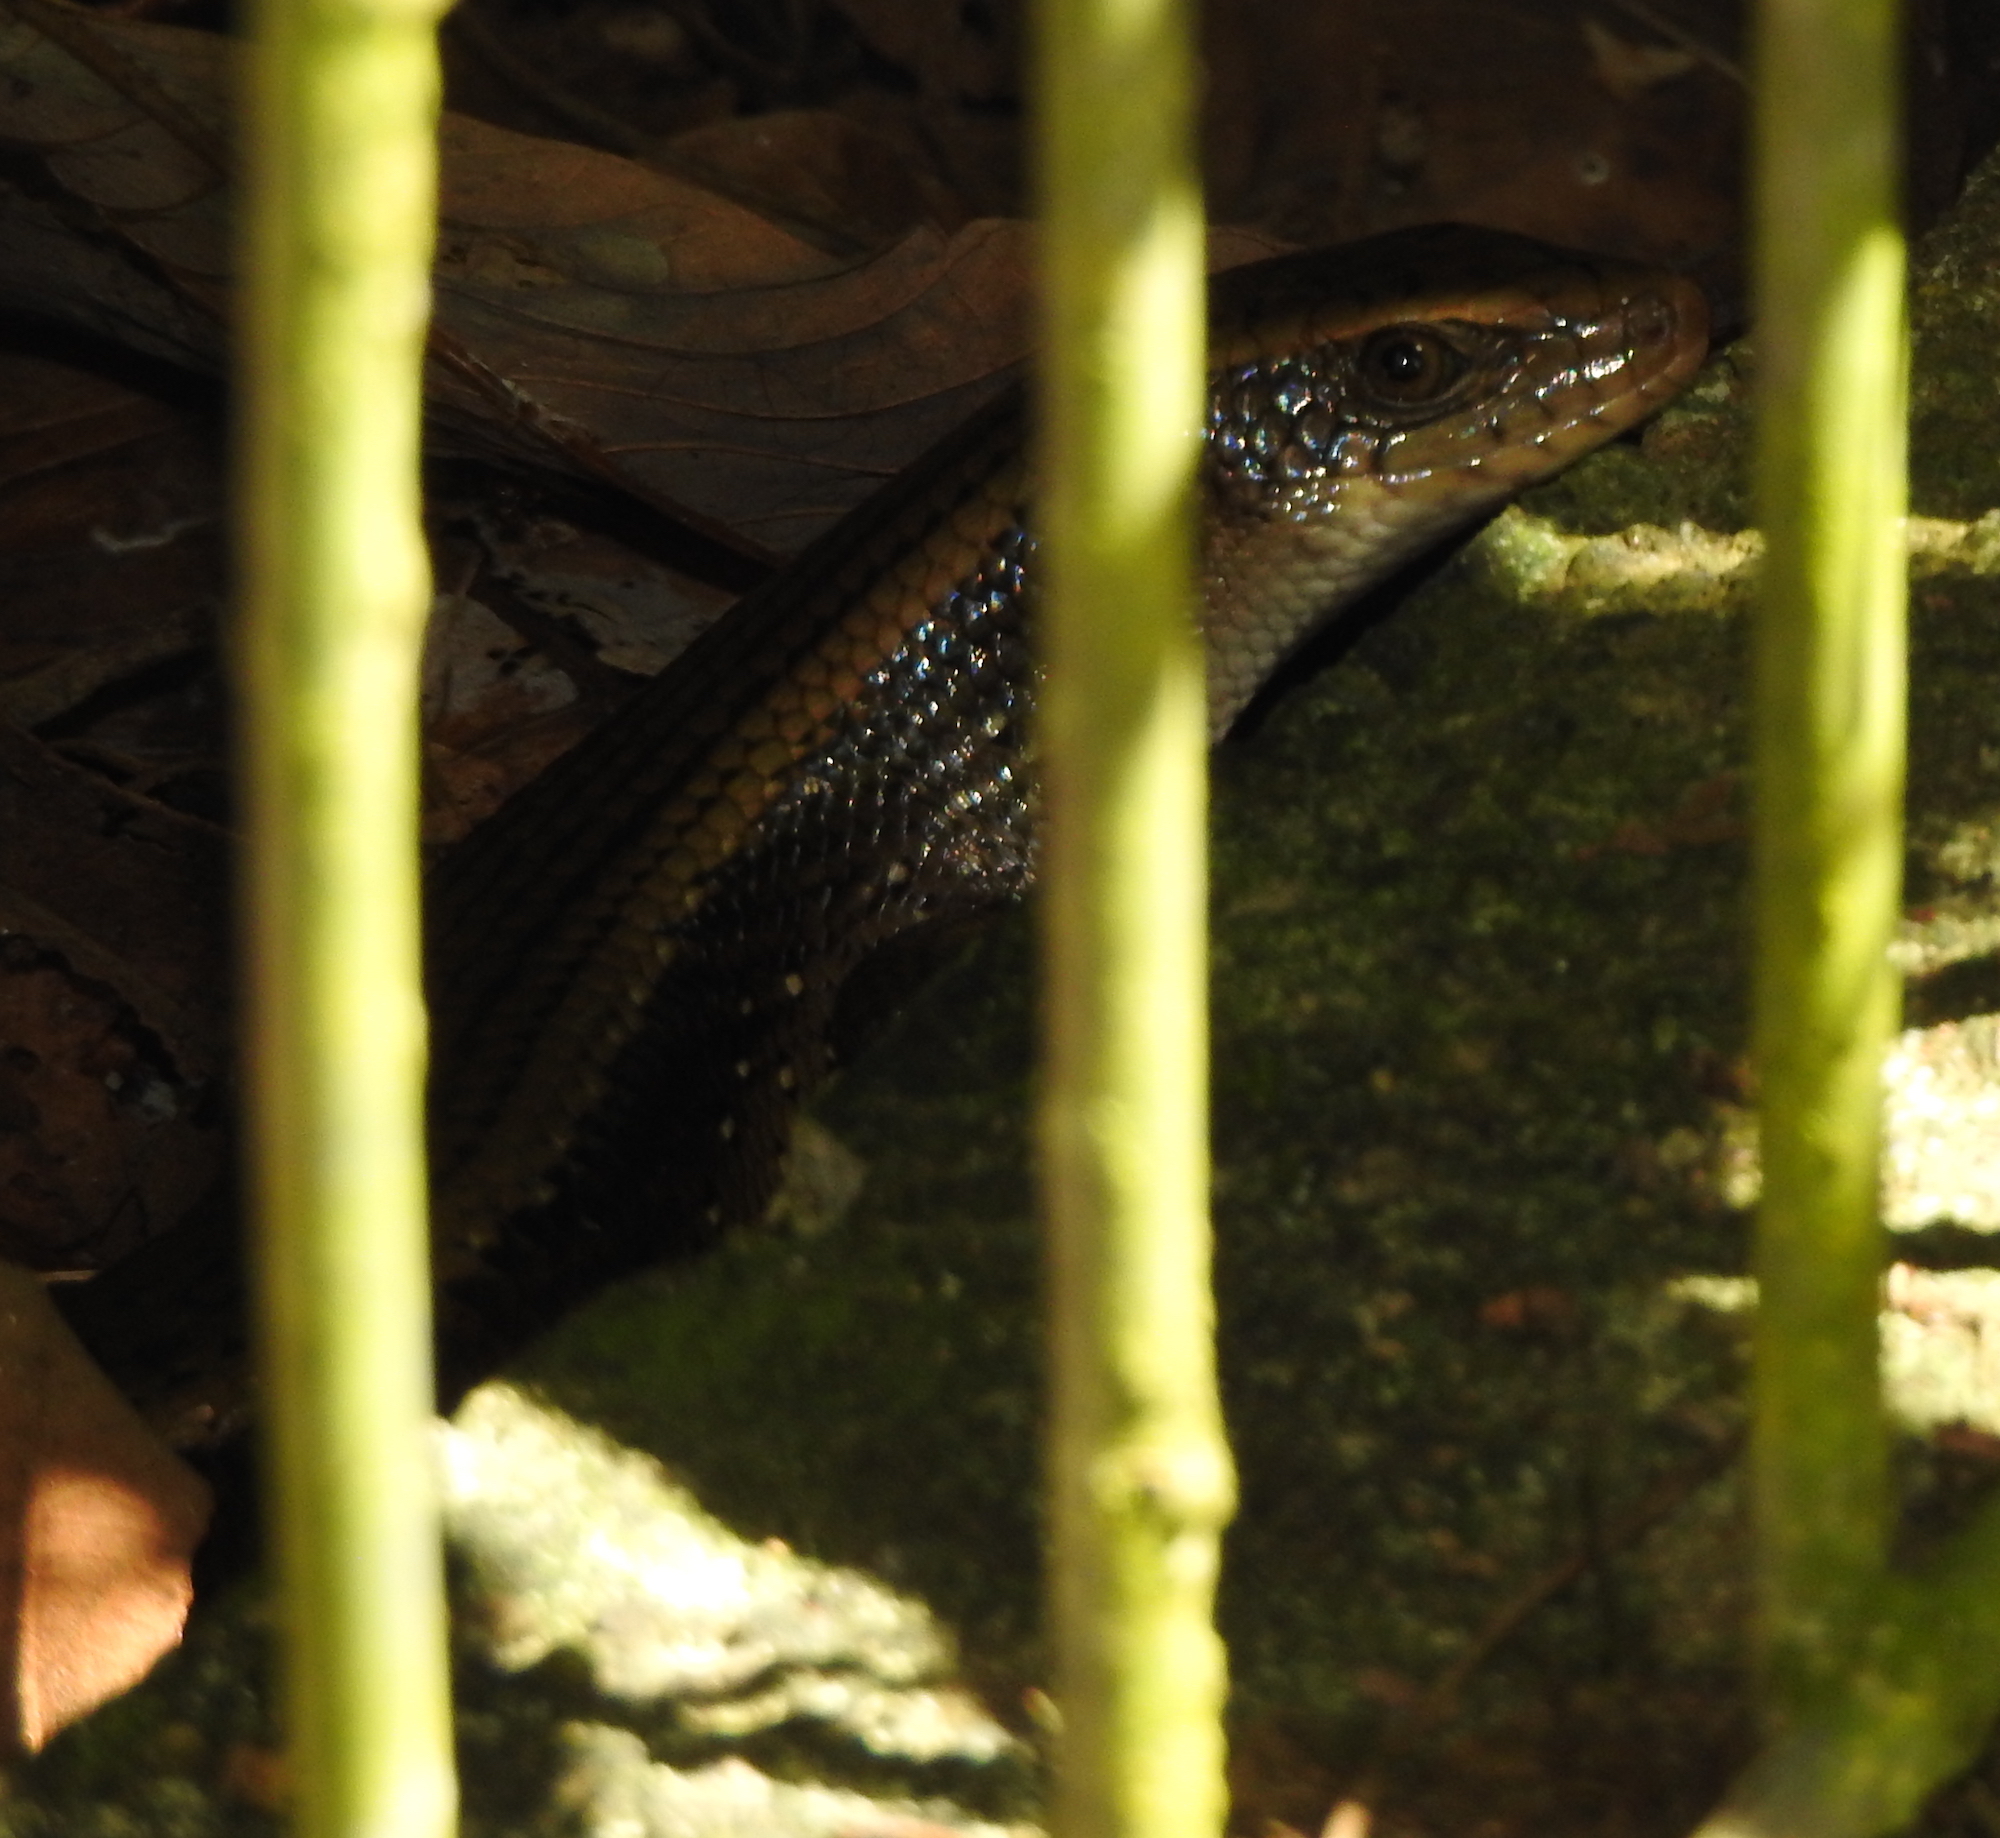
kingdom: Animalia
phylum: Chordata
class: Squamata
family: Scincidae
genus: Eutropis
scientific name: Eutropis multifasciata
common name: Common mabuya
